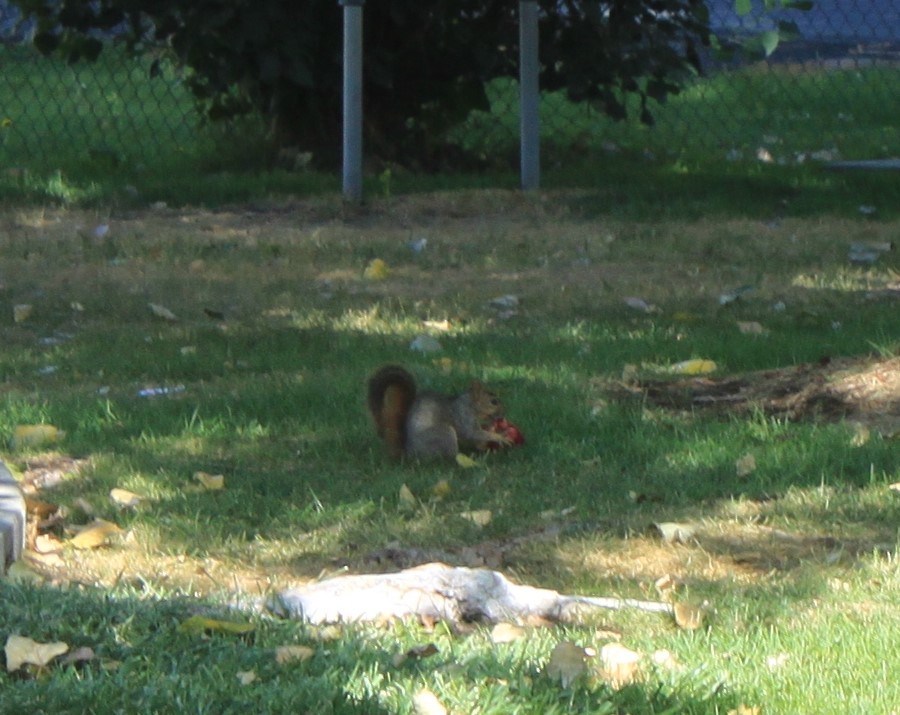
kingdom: Animalia
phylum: Chordata
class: Mammalia
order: Rodentia
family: Sciuridae
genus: Sciurus
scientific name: Sciurus niger
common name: Fox squirrel
